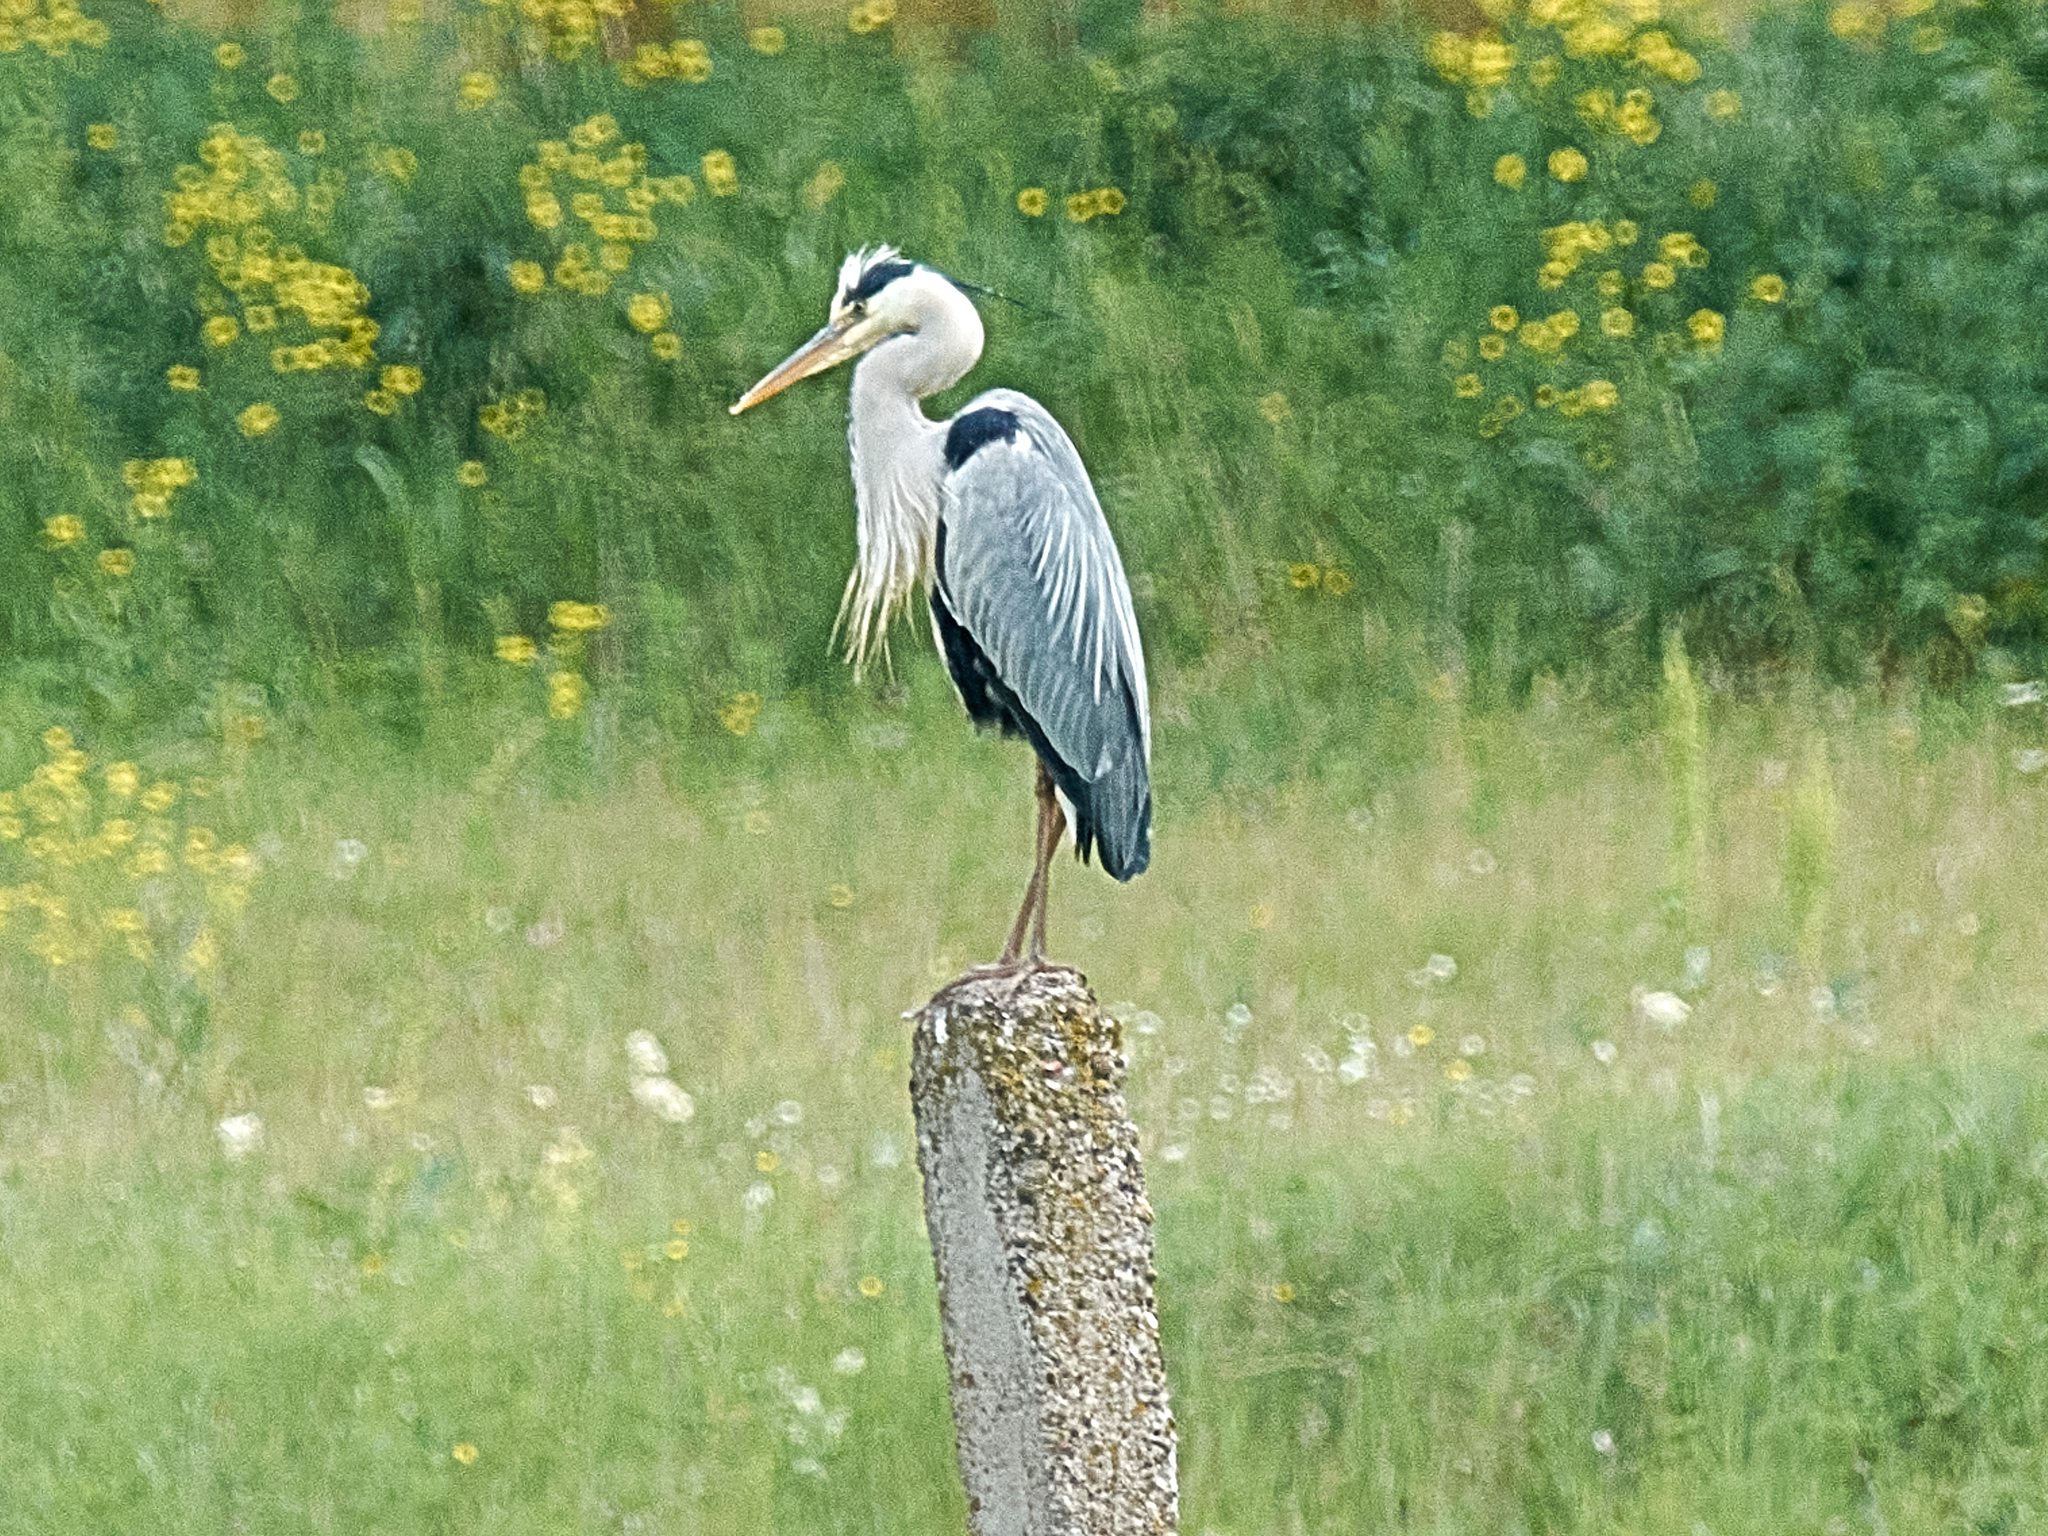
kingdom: Animalia
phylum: Chordata
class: Aves
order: Pelecaniformes
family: Ardeidae
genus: Ardea
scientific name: Ardea cinerea
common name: Grey heron
